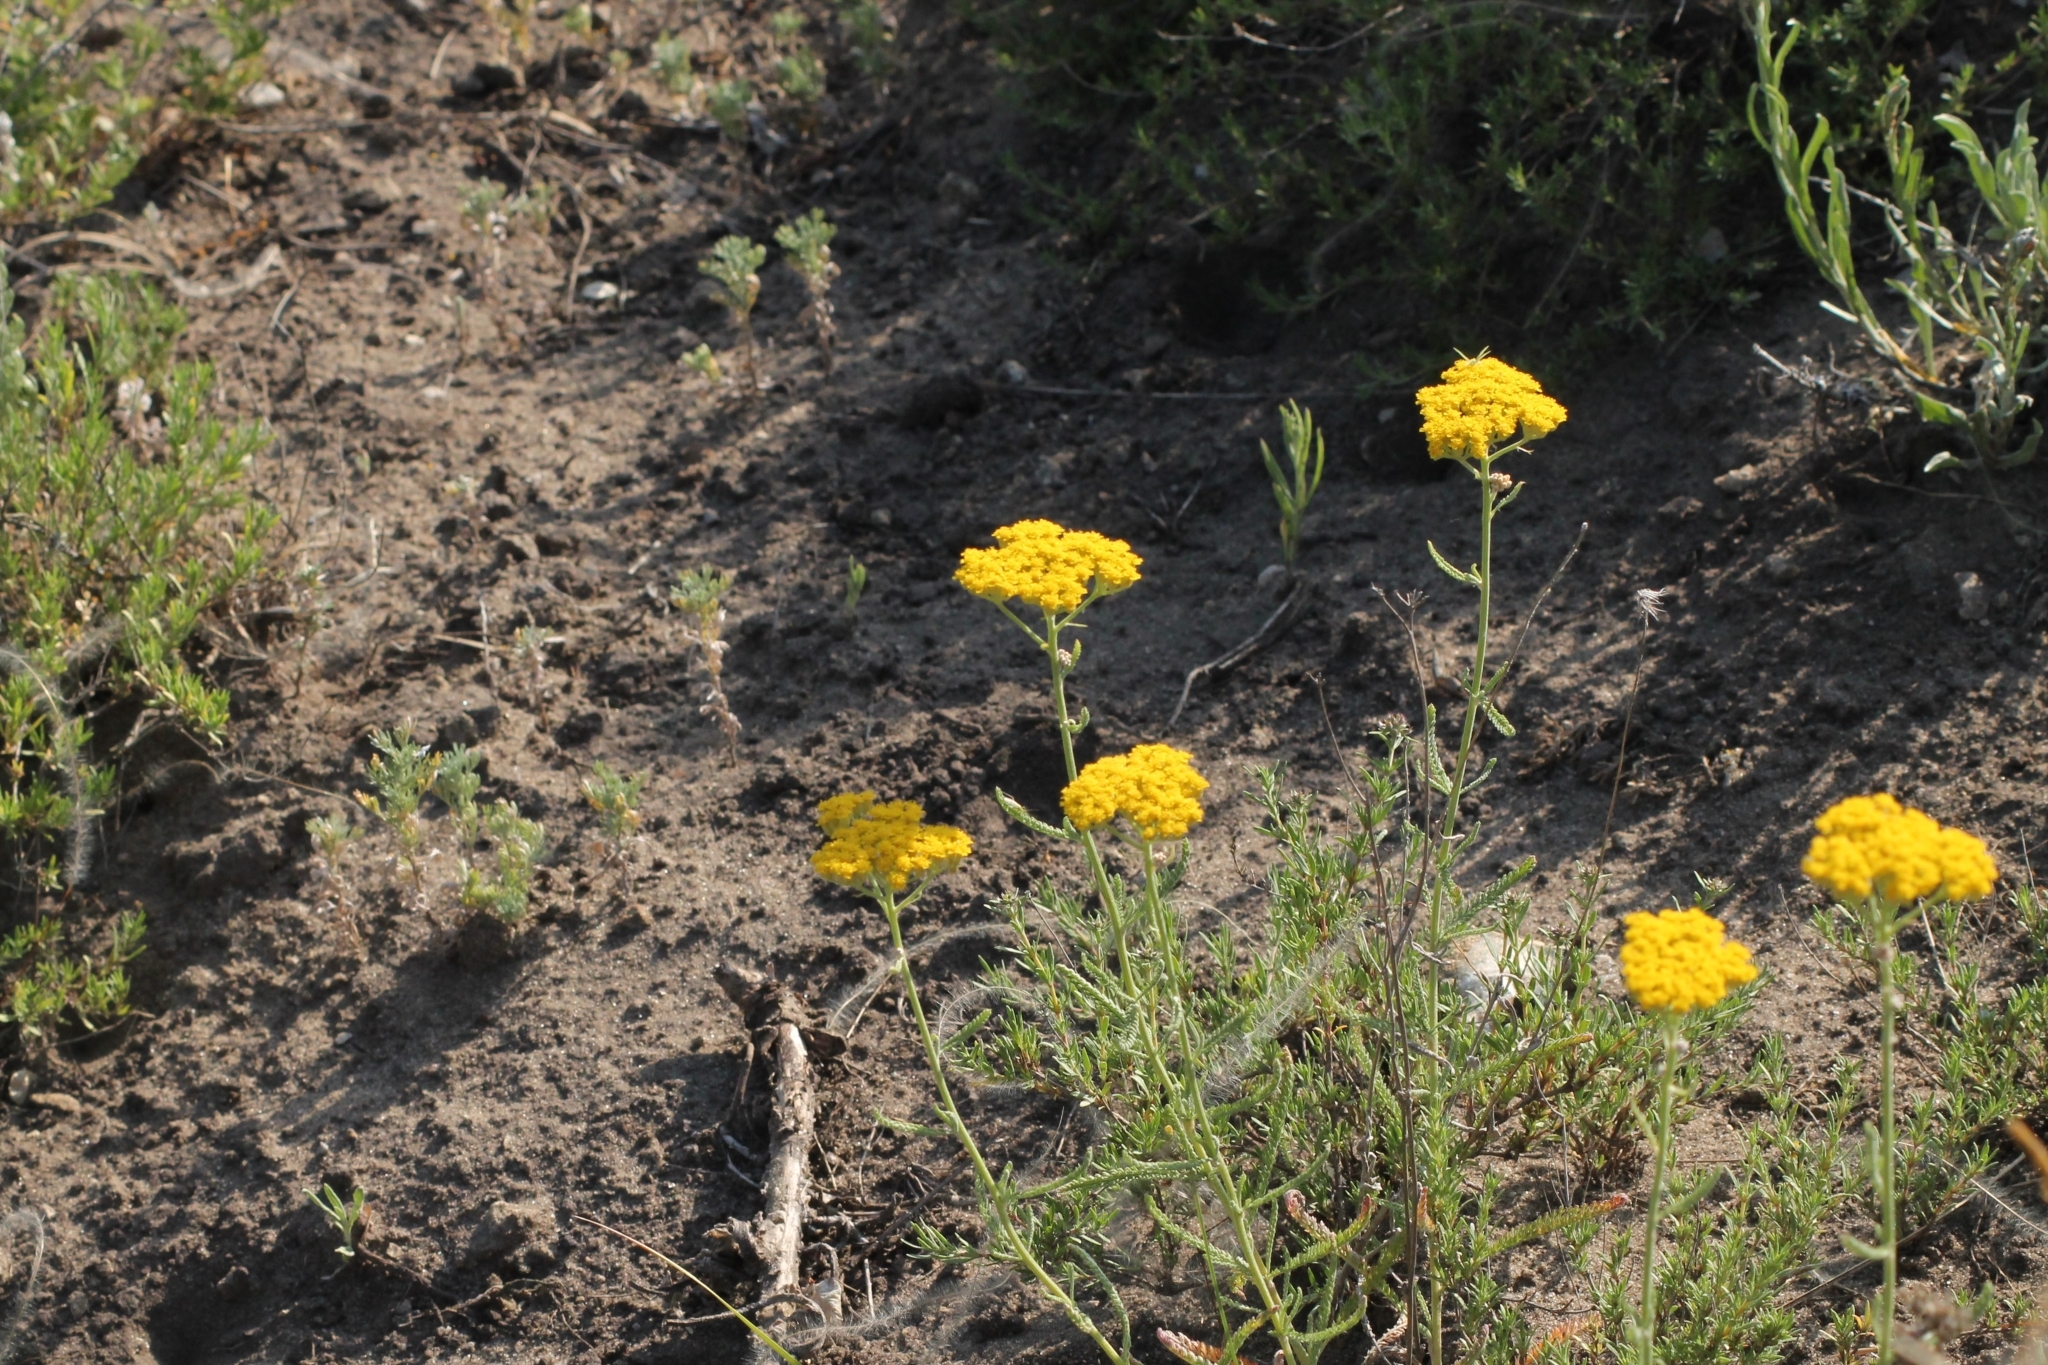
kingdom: Plantae
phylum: Tracheophyta
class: Magnoliopsida
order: Asterales
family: Asteraceae
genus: Achillea
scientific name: Achillea micrantha
